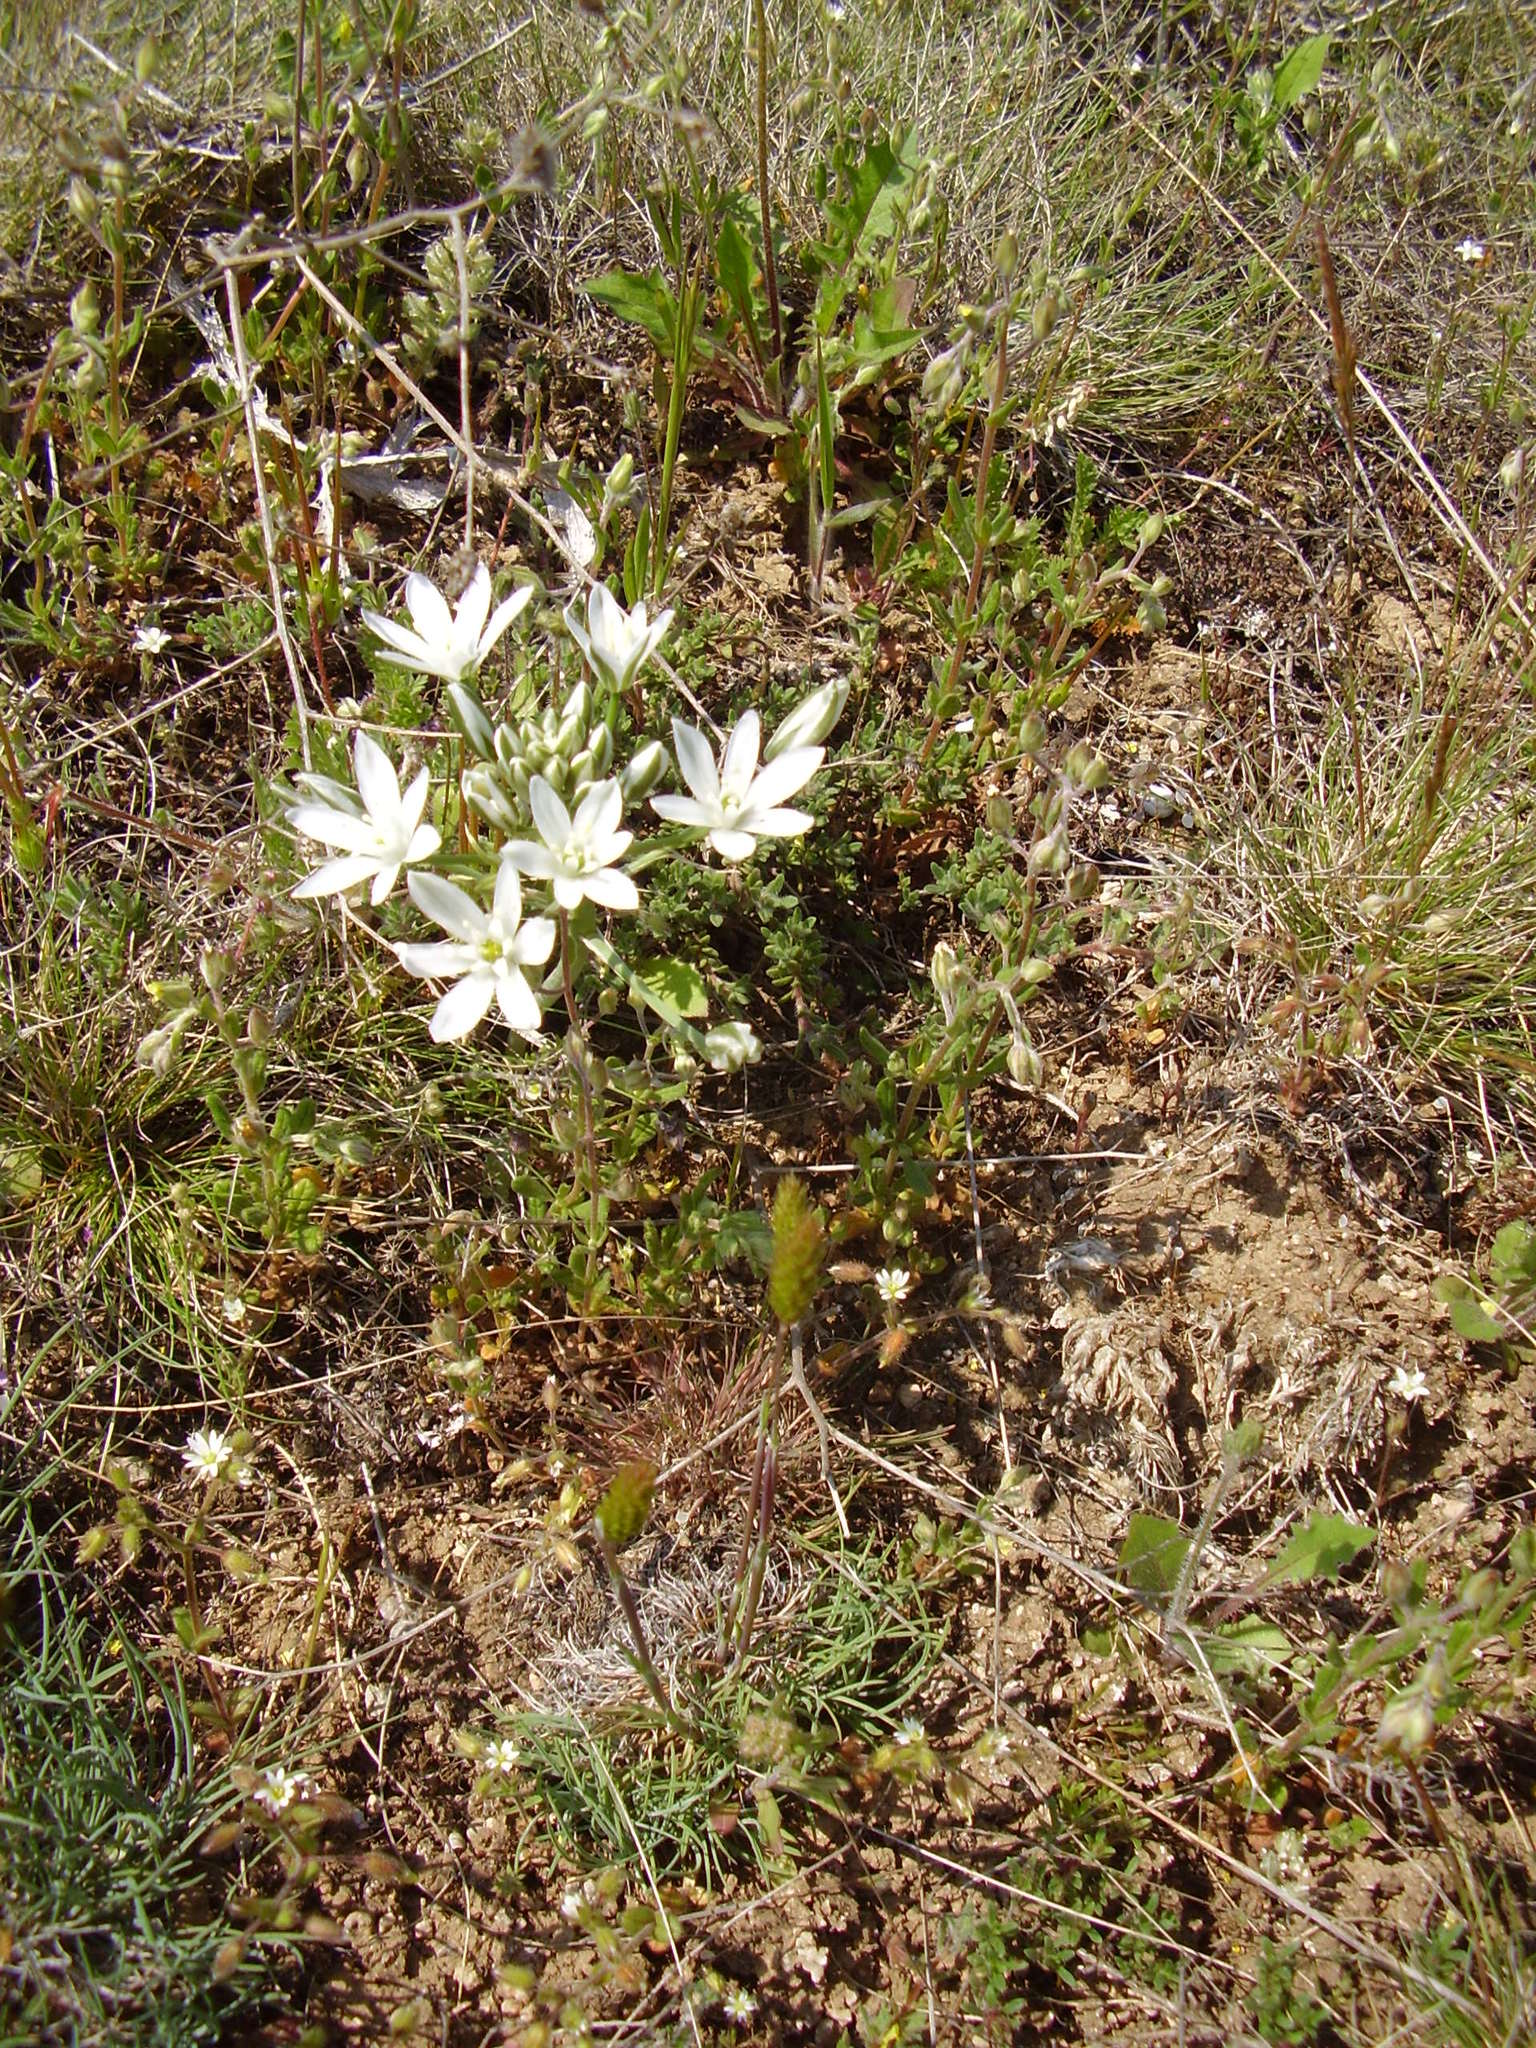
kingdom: Plantae
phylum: Tracheophyta
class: Liliopsida
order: Asparagales
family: Asparagaceae
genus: Ornithogalum
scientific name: Ornithogalum fimbriatum
